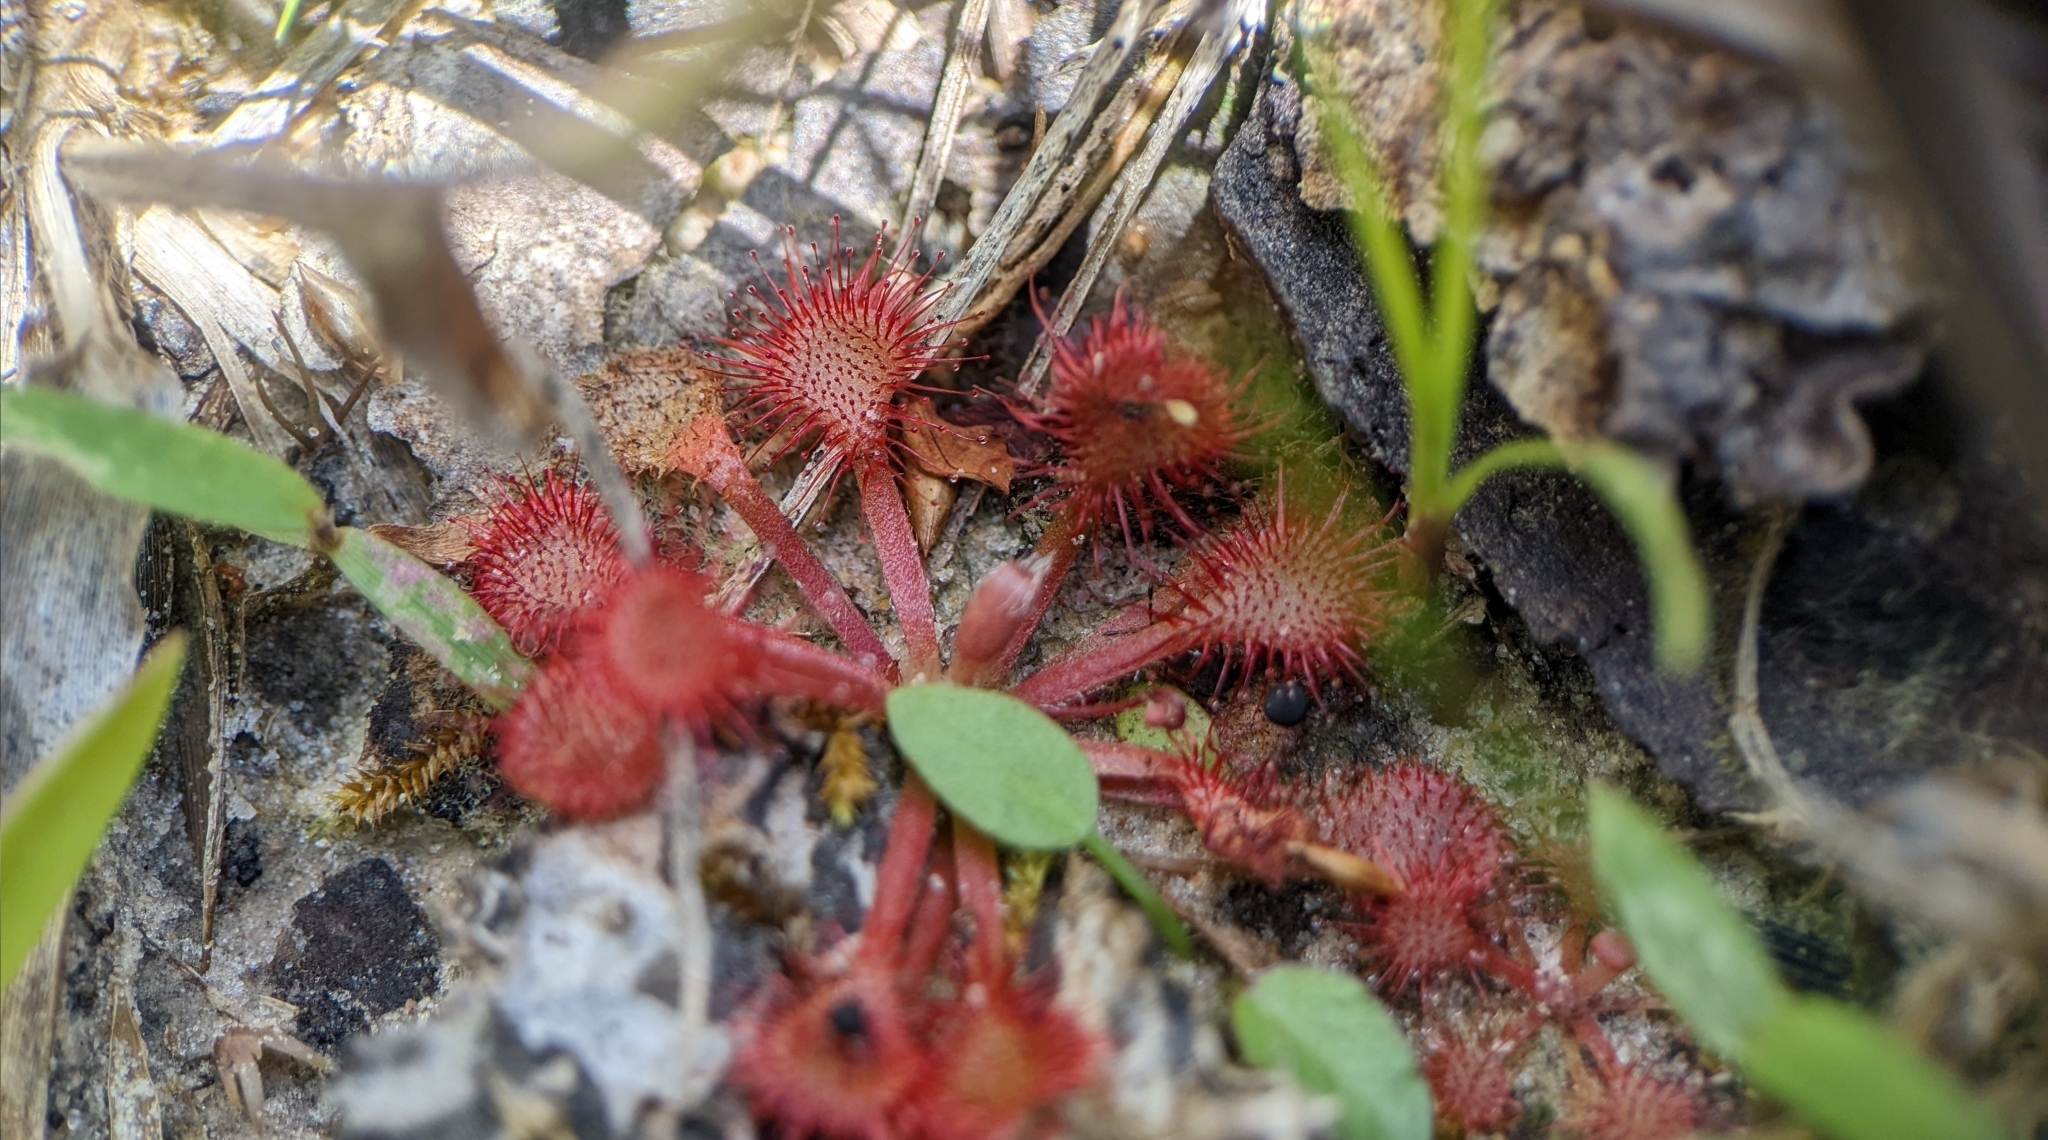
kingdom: Plantae
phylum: Tracheophyta
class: Magnoliopsida
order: Caryophyllales
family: Droseraceae
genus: Drosera
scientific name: Drosera capillaris
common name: Pink sundew
